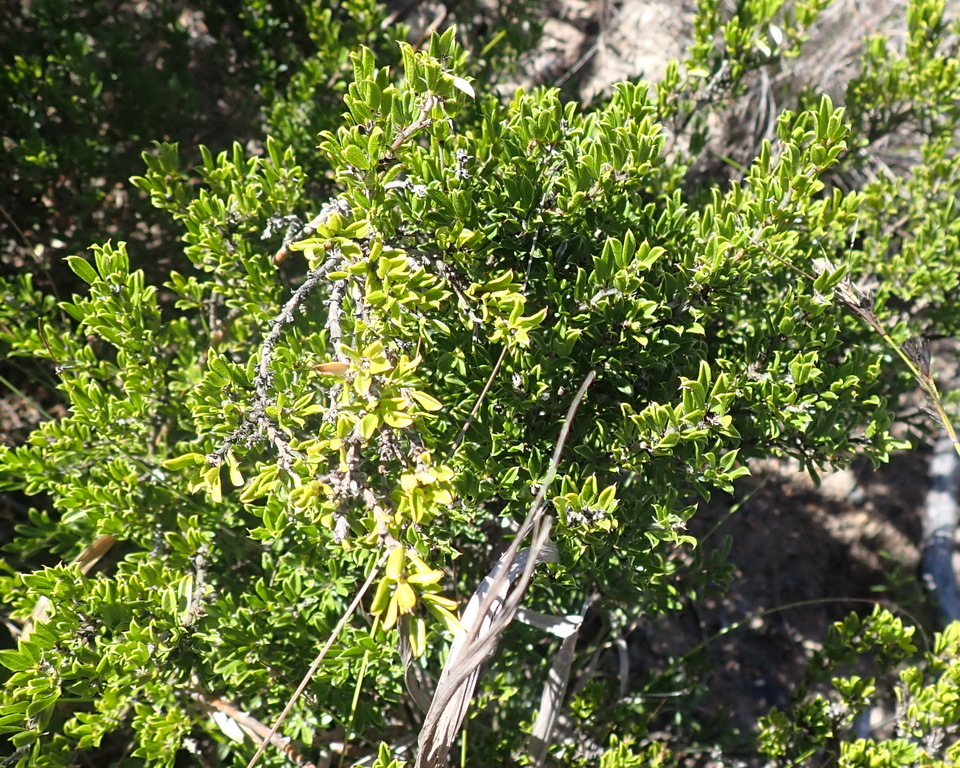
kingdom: Plantae
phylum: Tracheophyta
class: Magnoliopsida
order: Fabales
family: Fabaceae
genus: Psoralea
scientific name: Psoralea heterosepala
